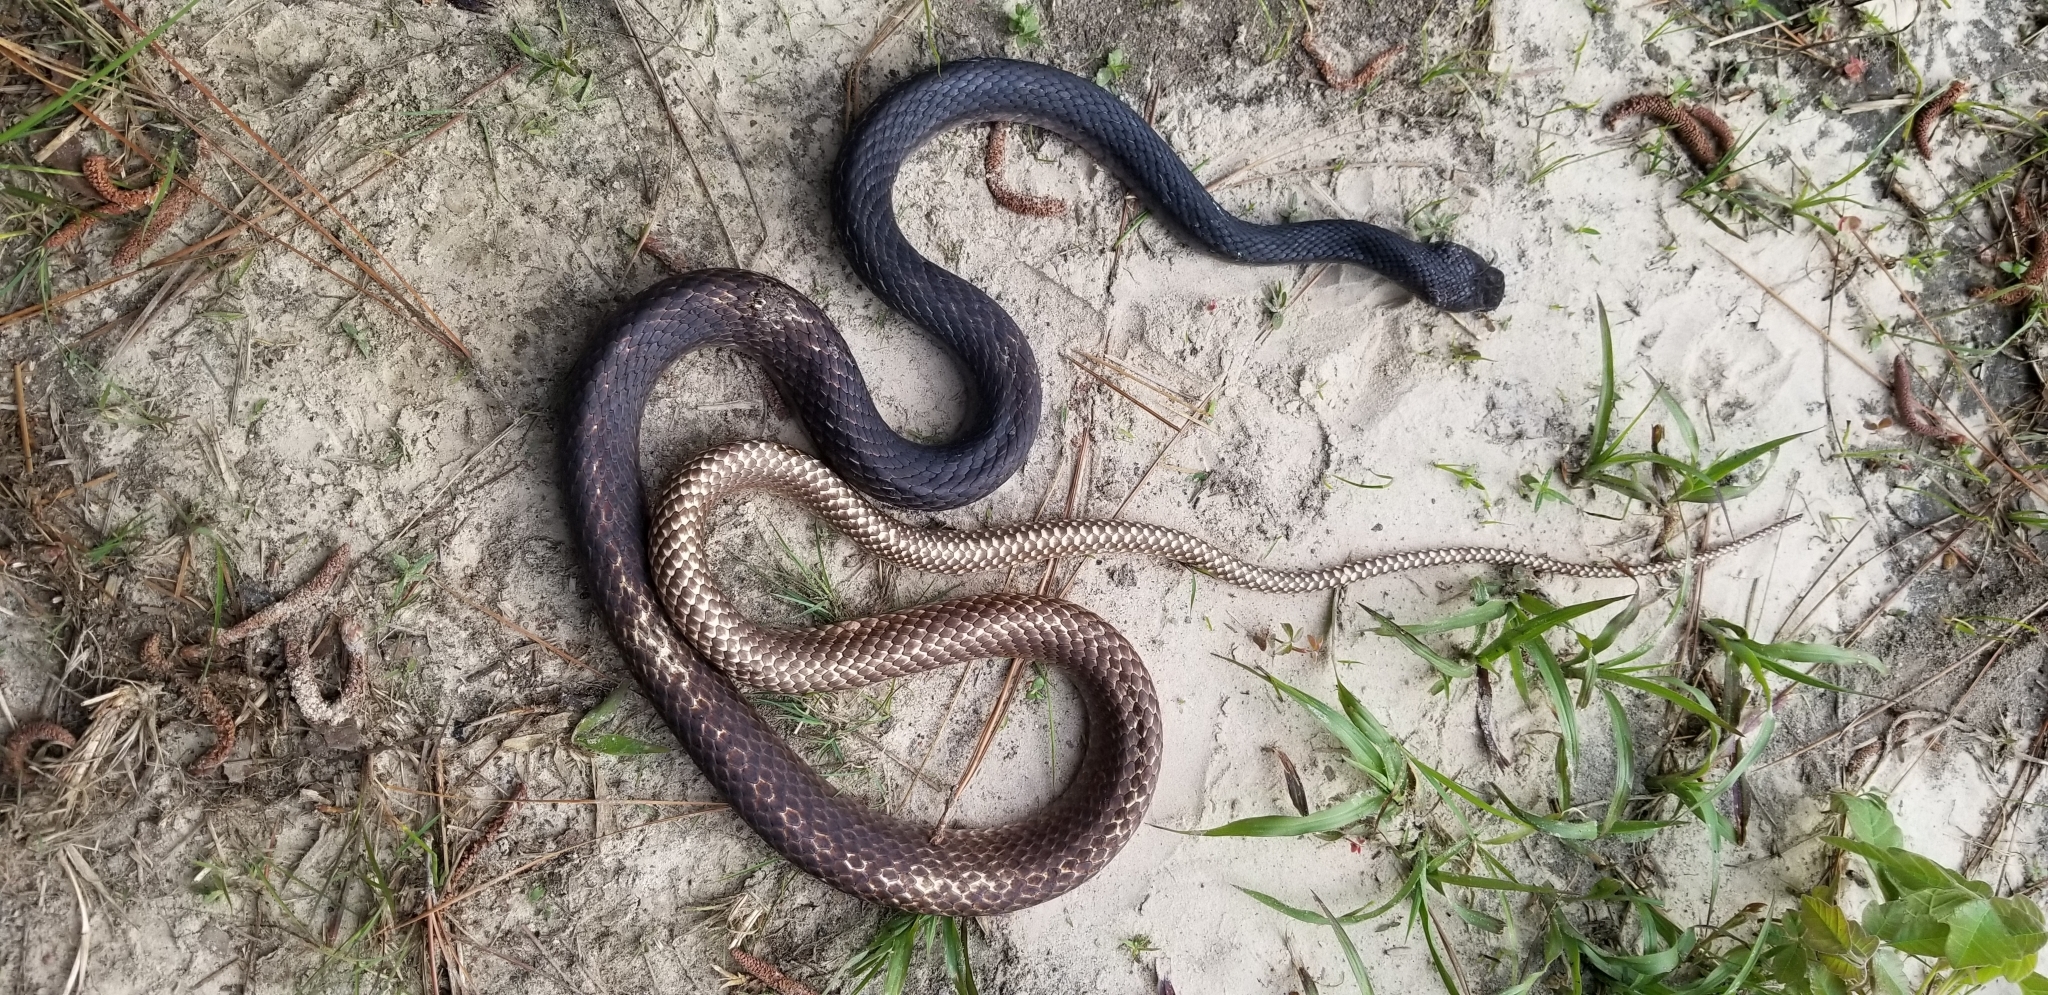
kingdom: Animalia
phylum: Chordata
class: Squamata
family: Colubridae
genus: Masticophis
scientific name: Masticophis flagellum
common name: Coachwhip
